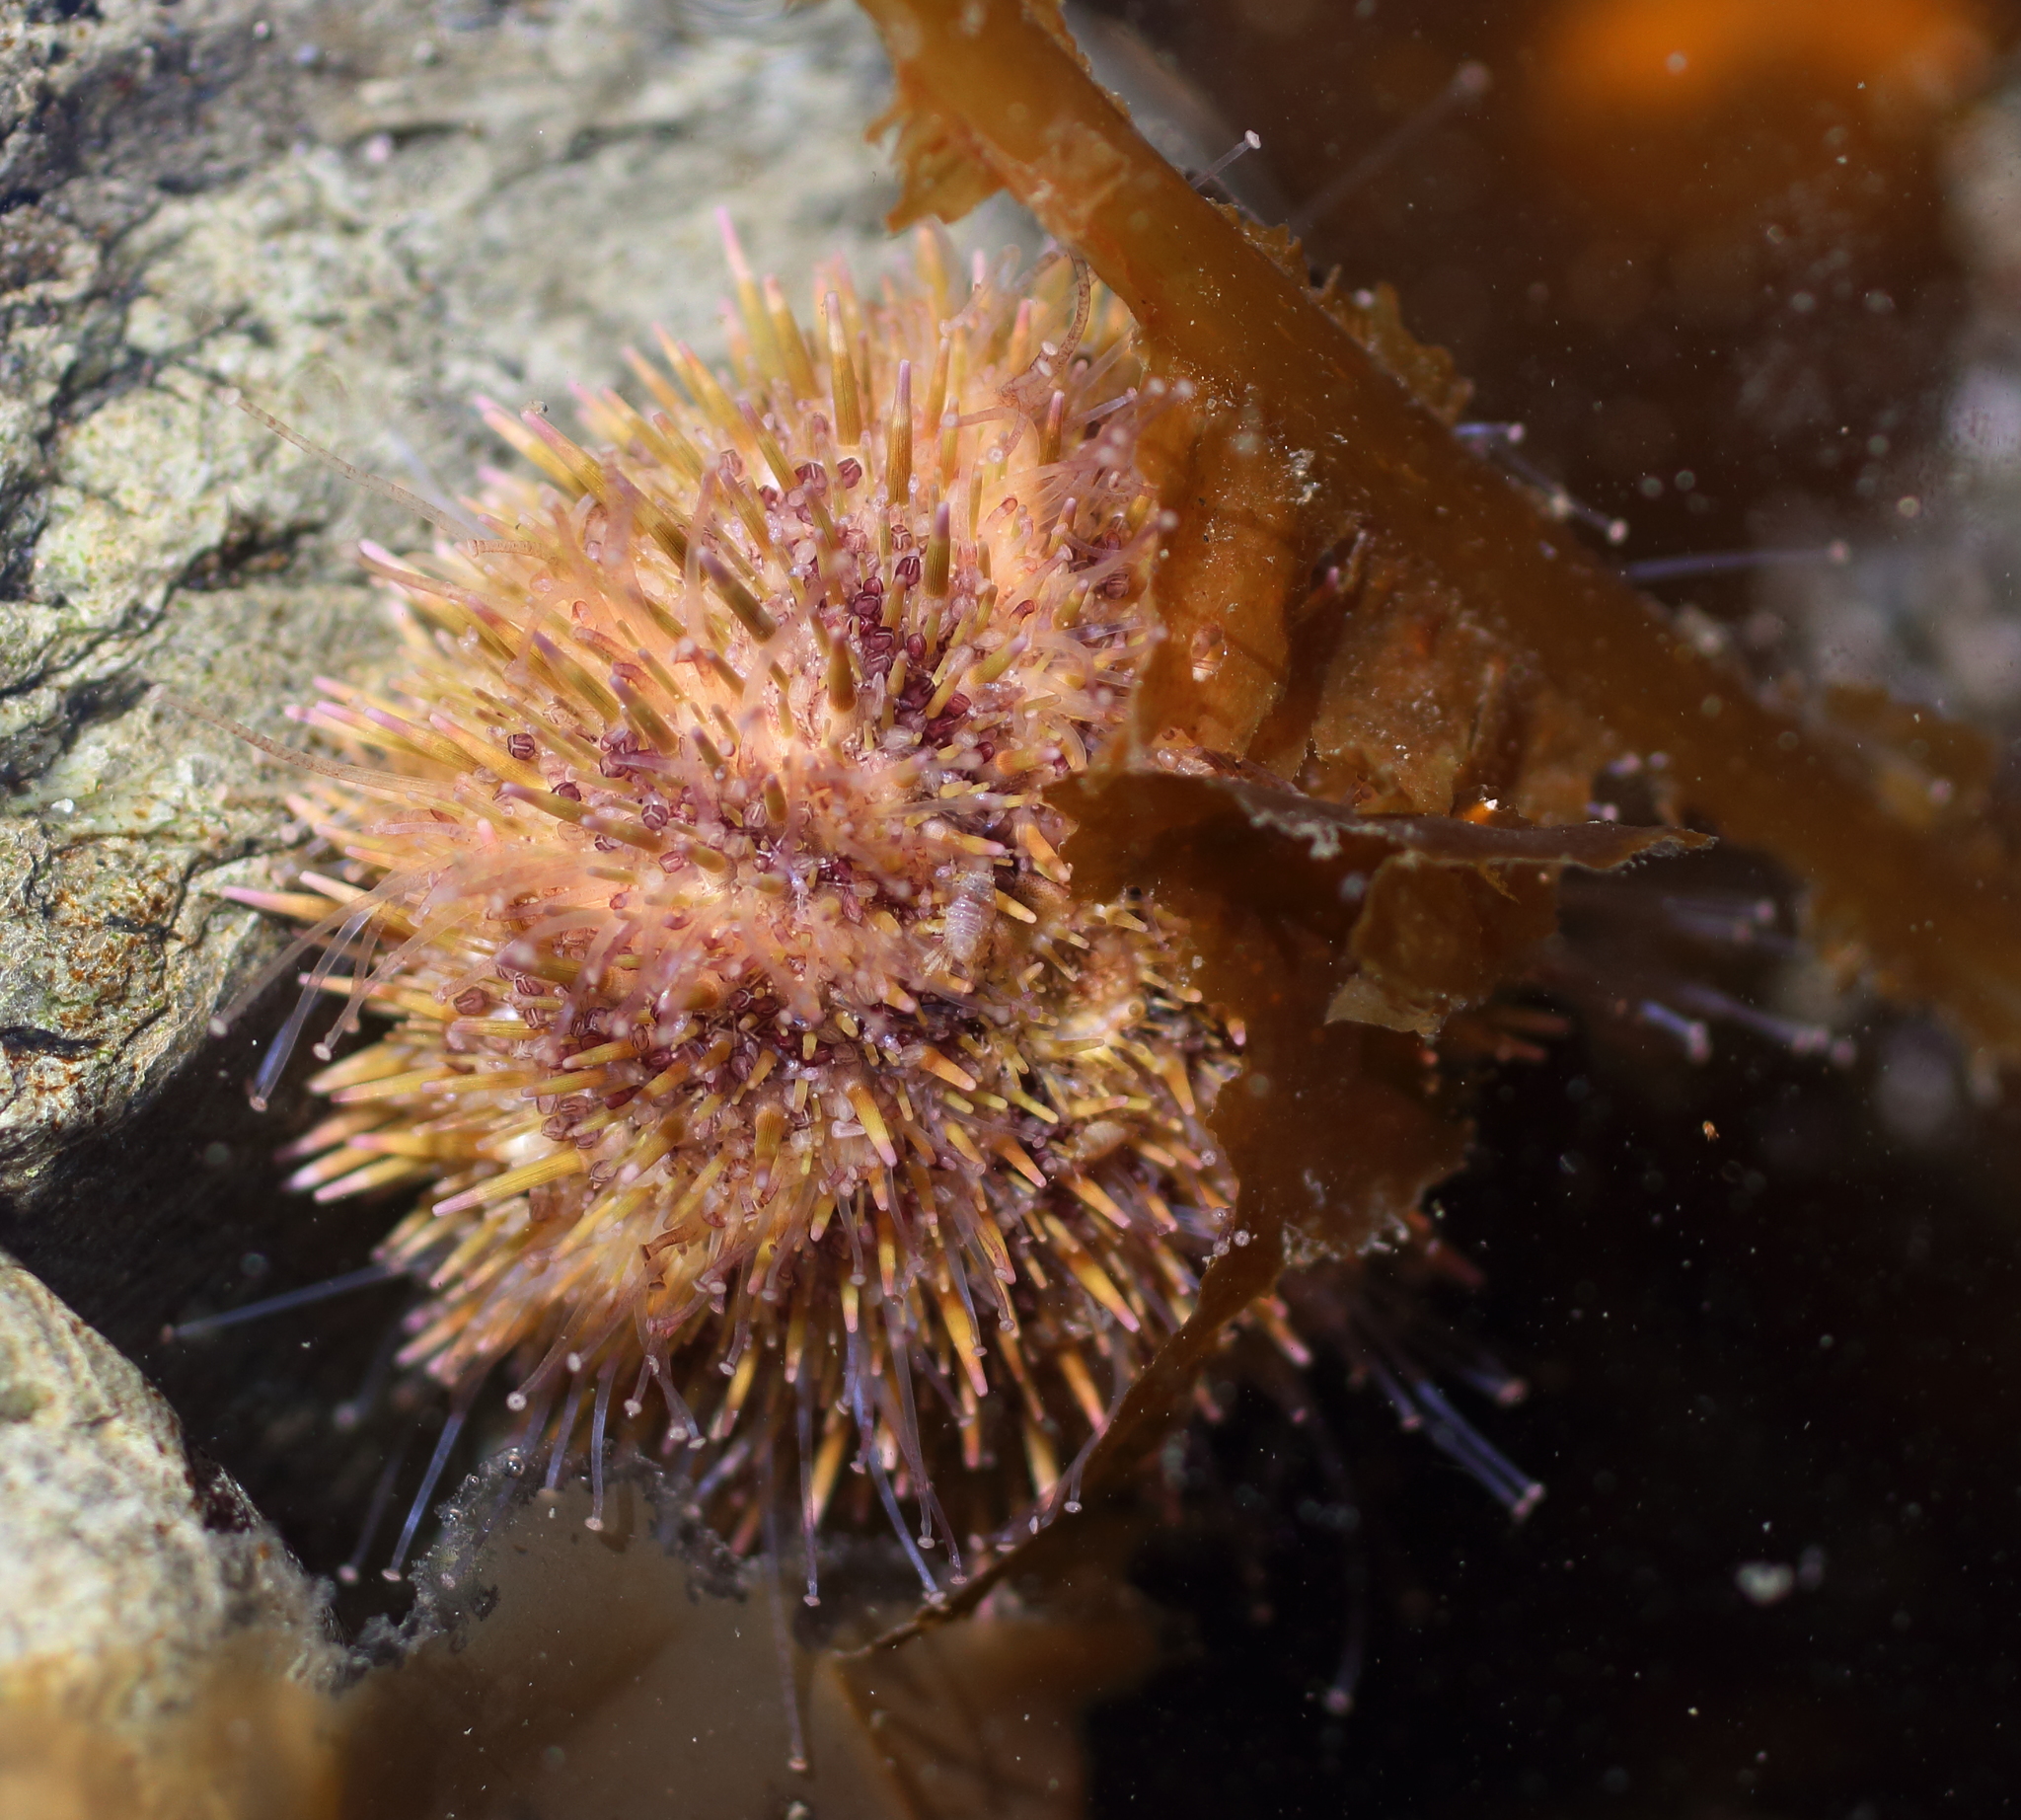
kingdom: Animalia
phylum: Echinodermata
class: Echinoidea
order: Camarodonta
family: Strongylocentrotidae
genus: Strongylocentrotus
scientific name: Strongylocentrotus droebachiensis
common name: Northern sea urchin
